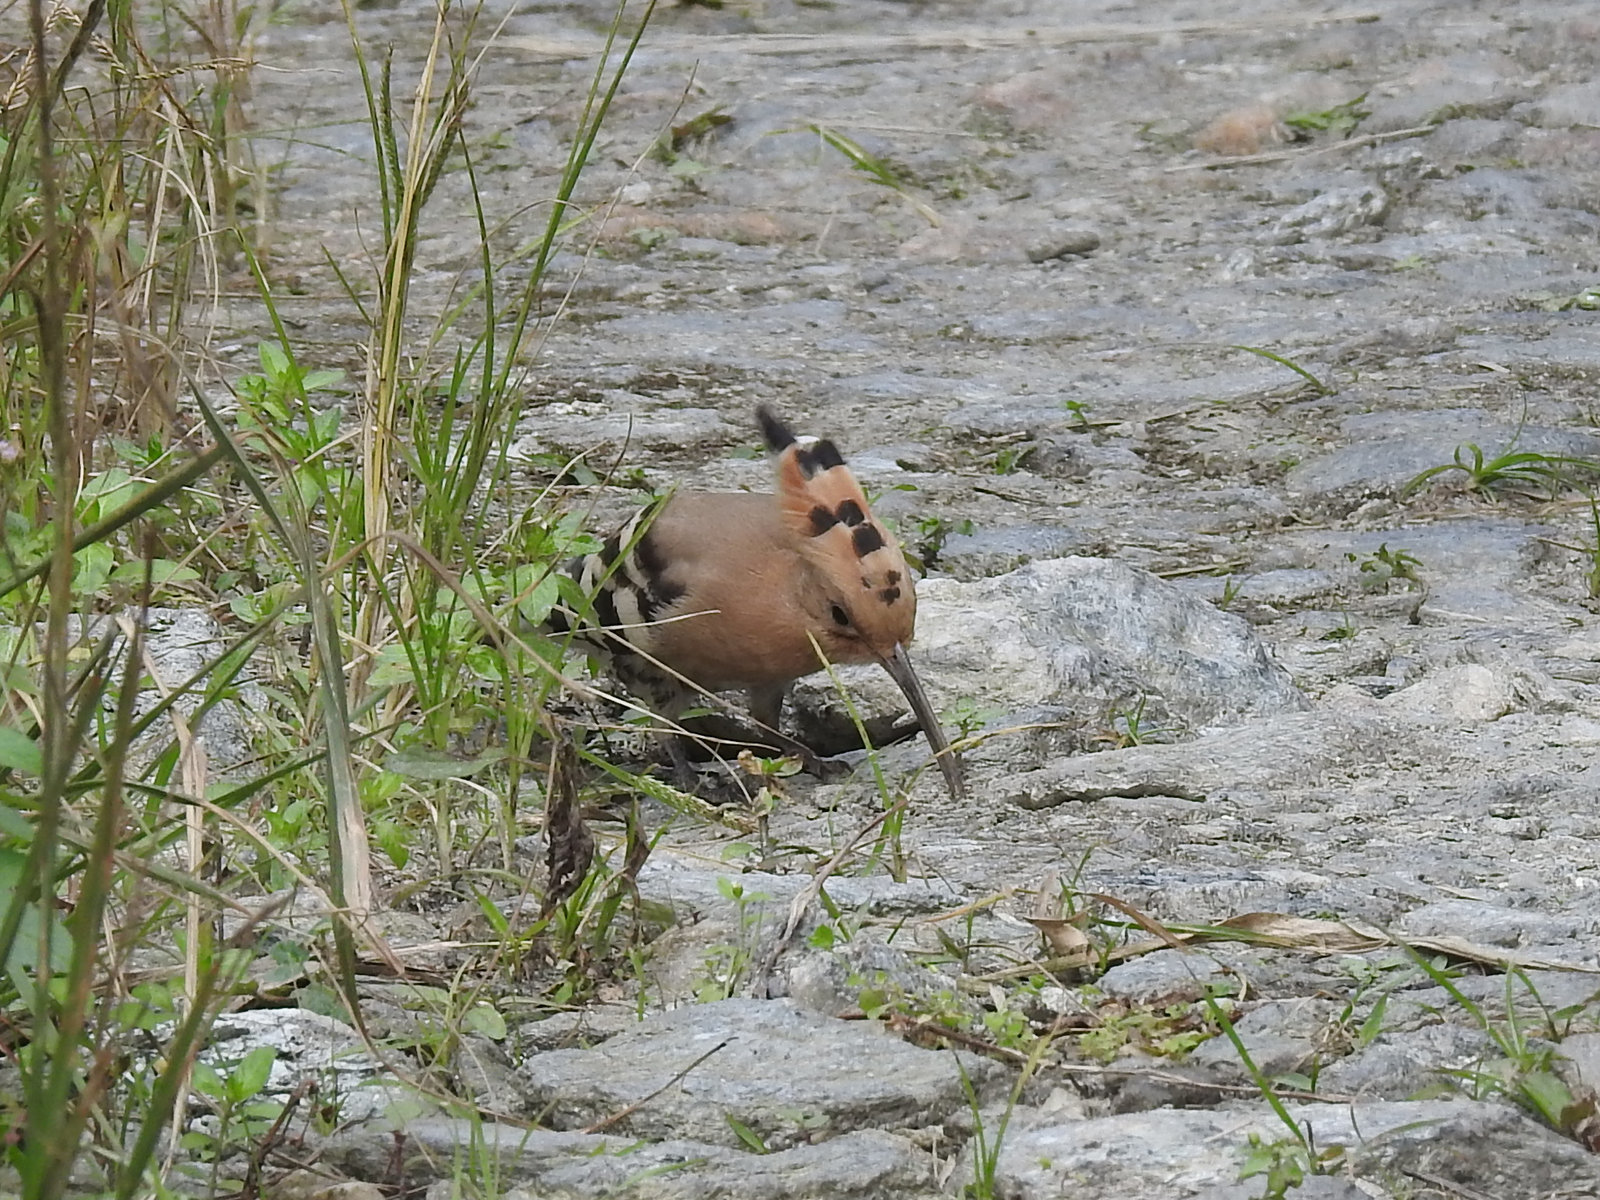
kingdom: Animalia
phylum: Chordata
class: Aves
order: Bucerotiformes
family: Upupidae
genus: Upupa
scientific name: Upupa epops
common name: Eurasian hoopoe
